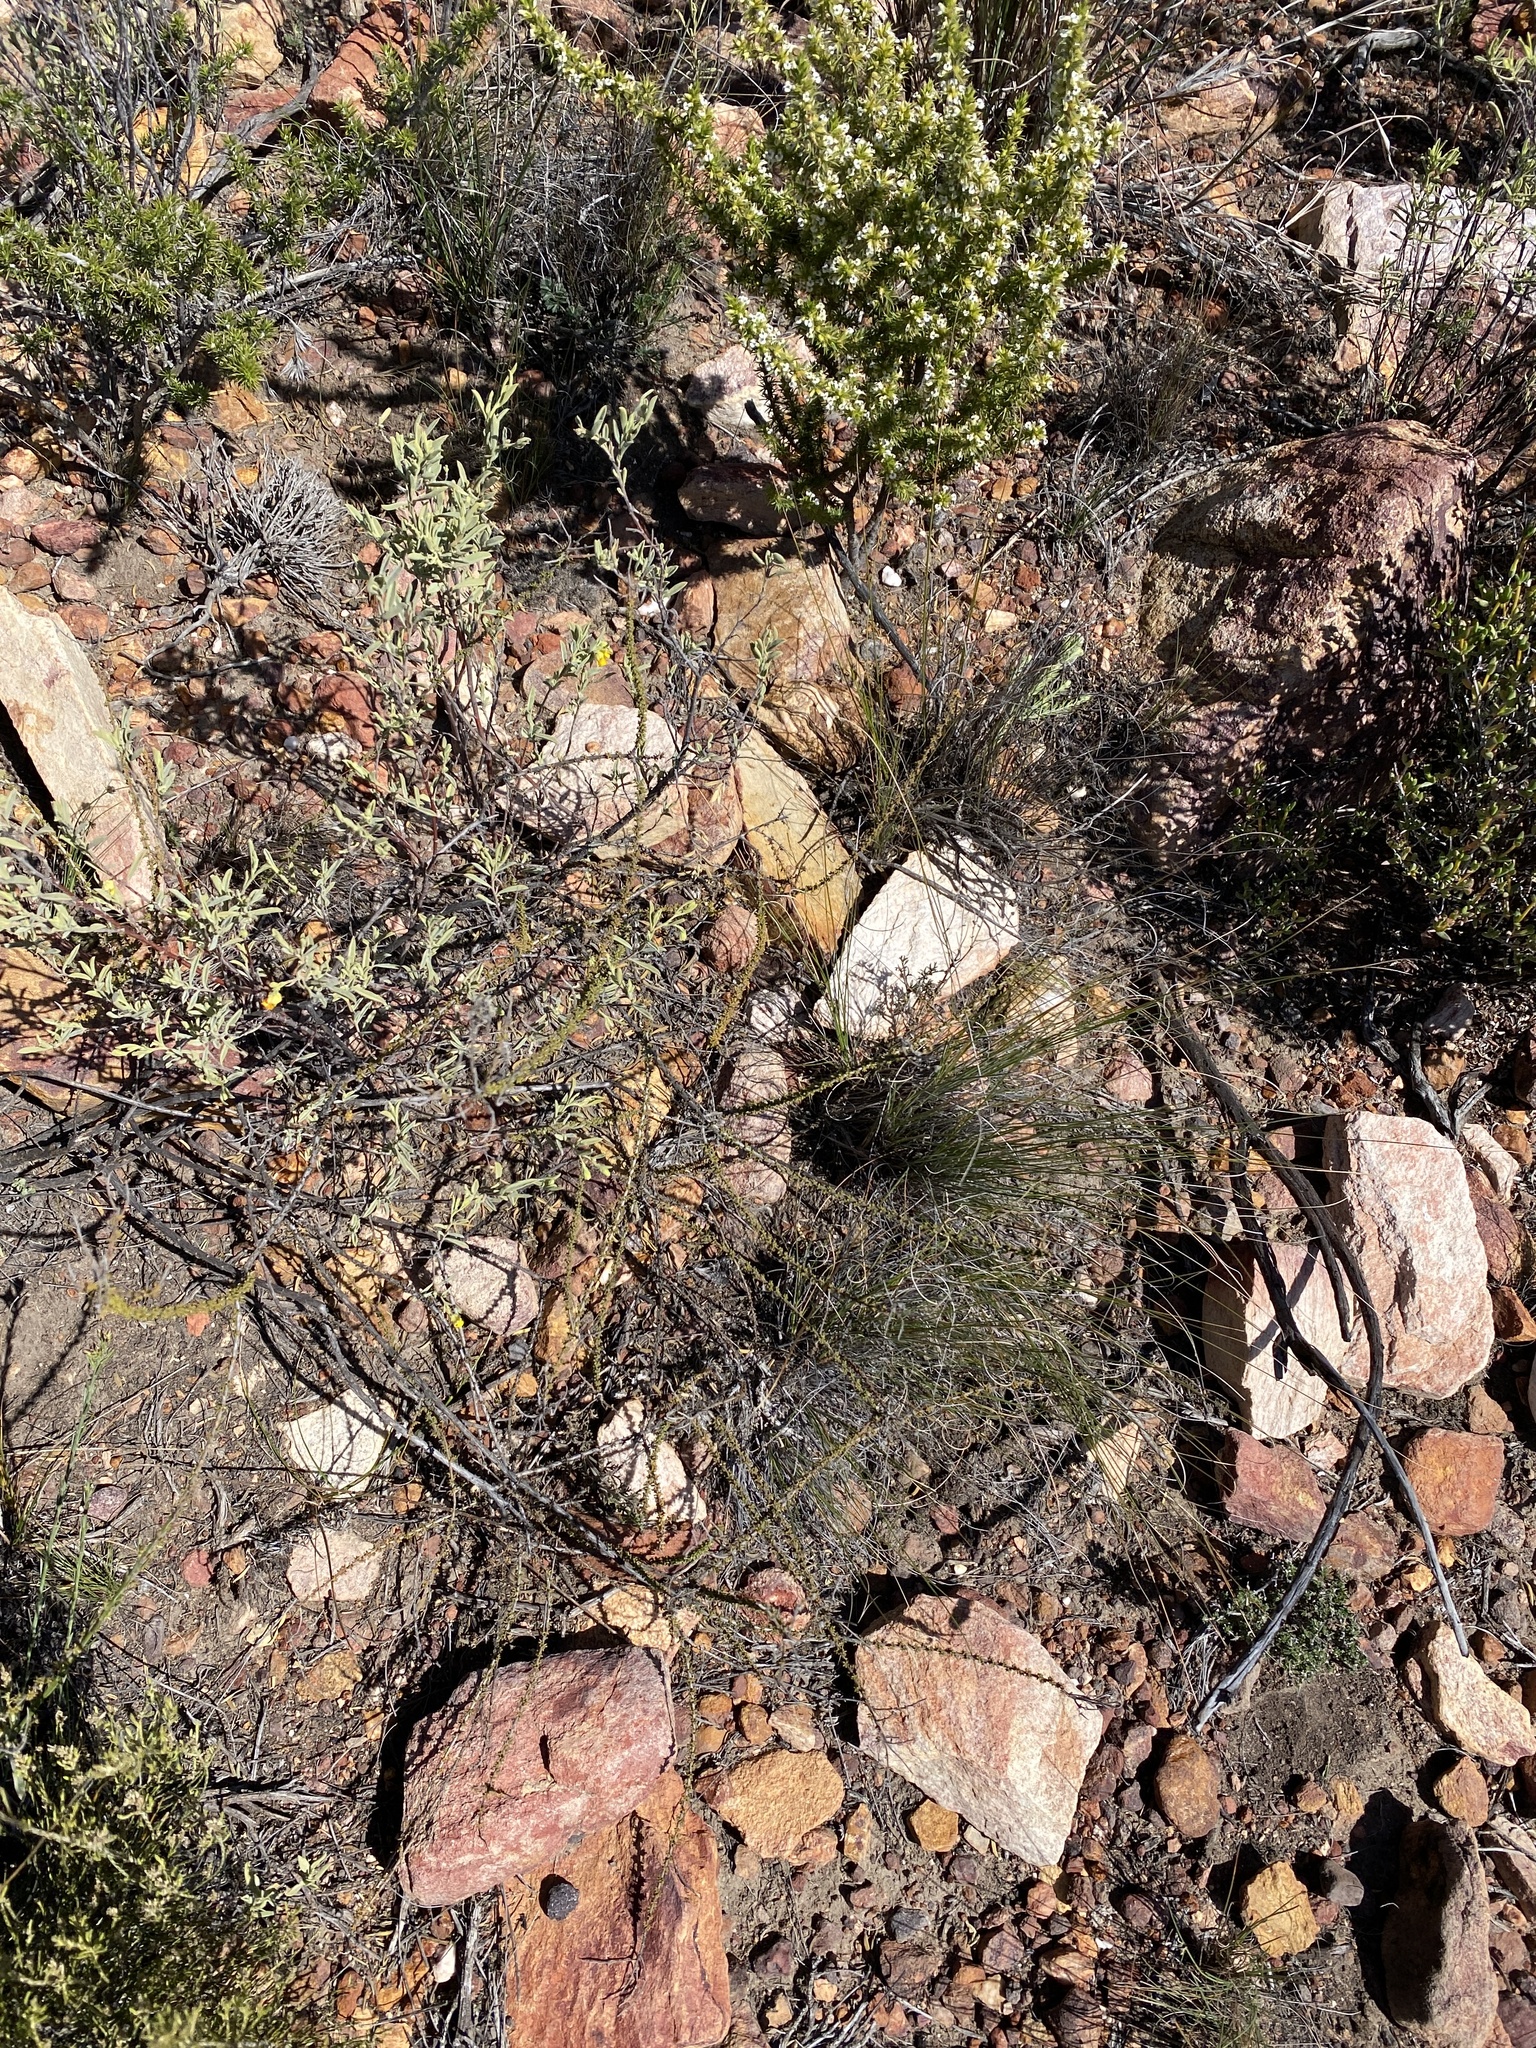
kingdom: Plantae
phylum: Tracheophyta
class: Magnoliopsida
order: Lamiales
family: Scrophulariaceae
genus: Selago
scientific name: Selago brevifolia
